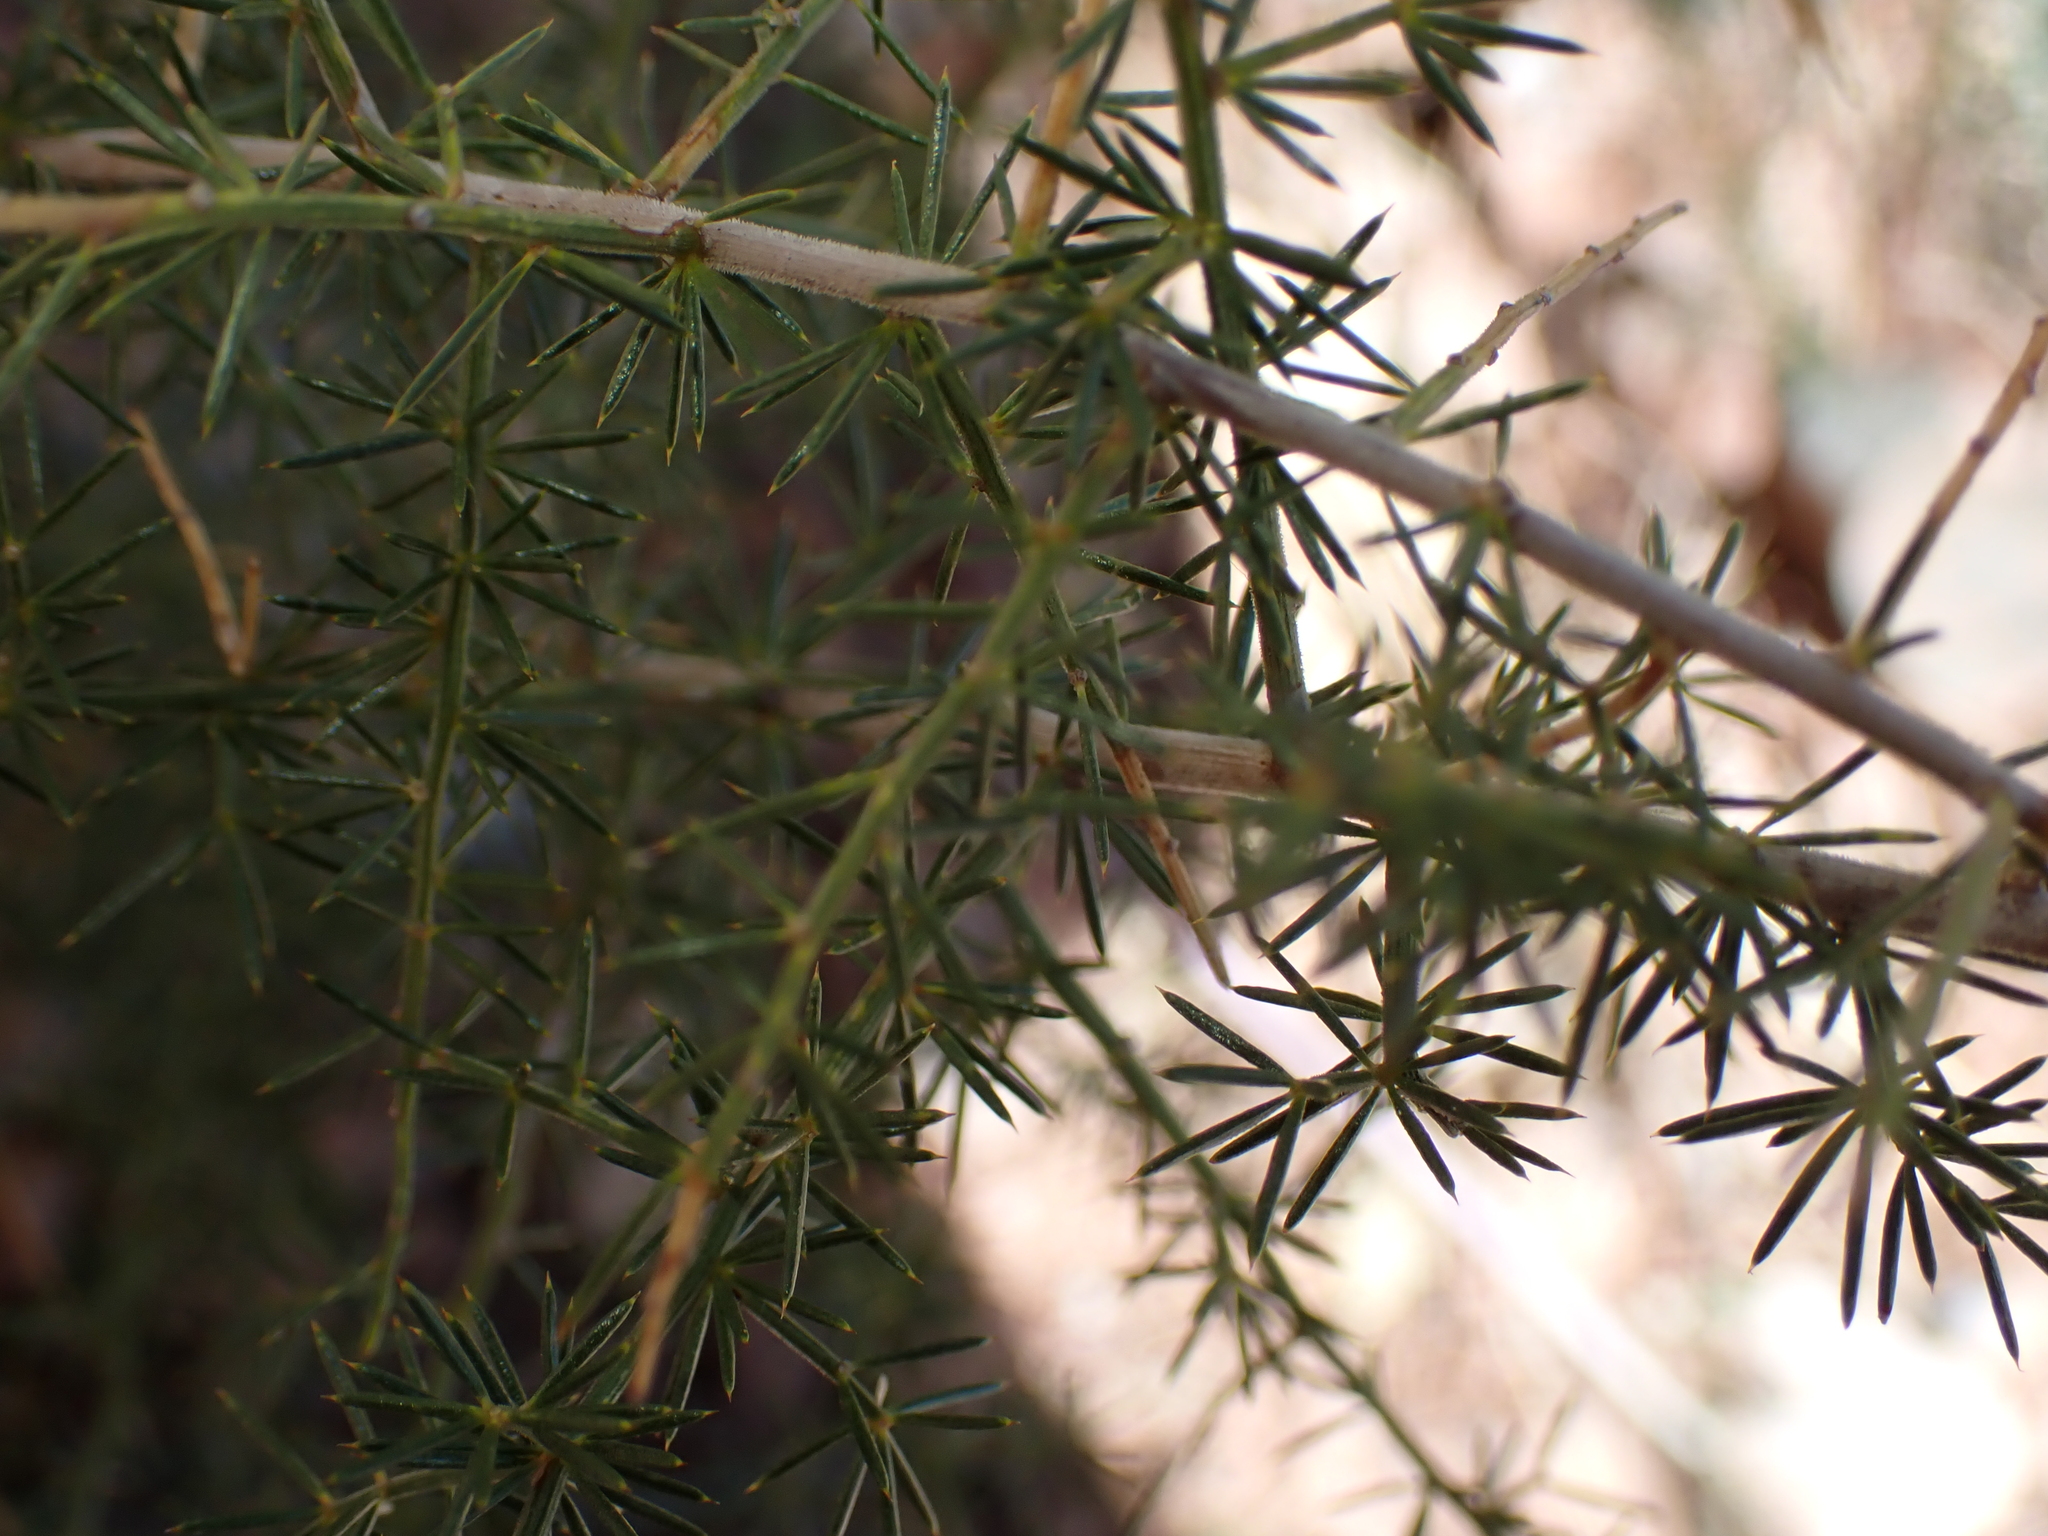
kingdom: Plantae
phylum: Tracheophyta
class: Liliopsida
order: Asparagales
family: Asparagaceae
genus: Asparagus
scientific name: Asparagus acutifolius
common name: Wild asparagus
